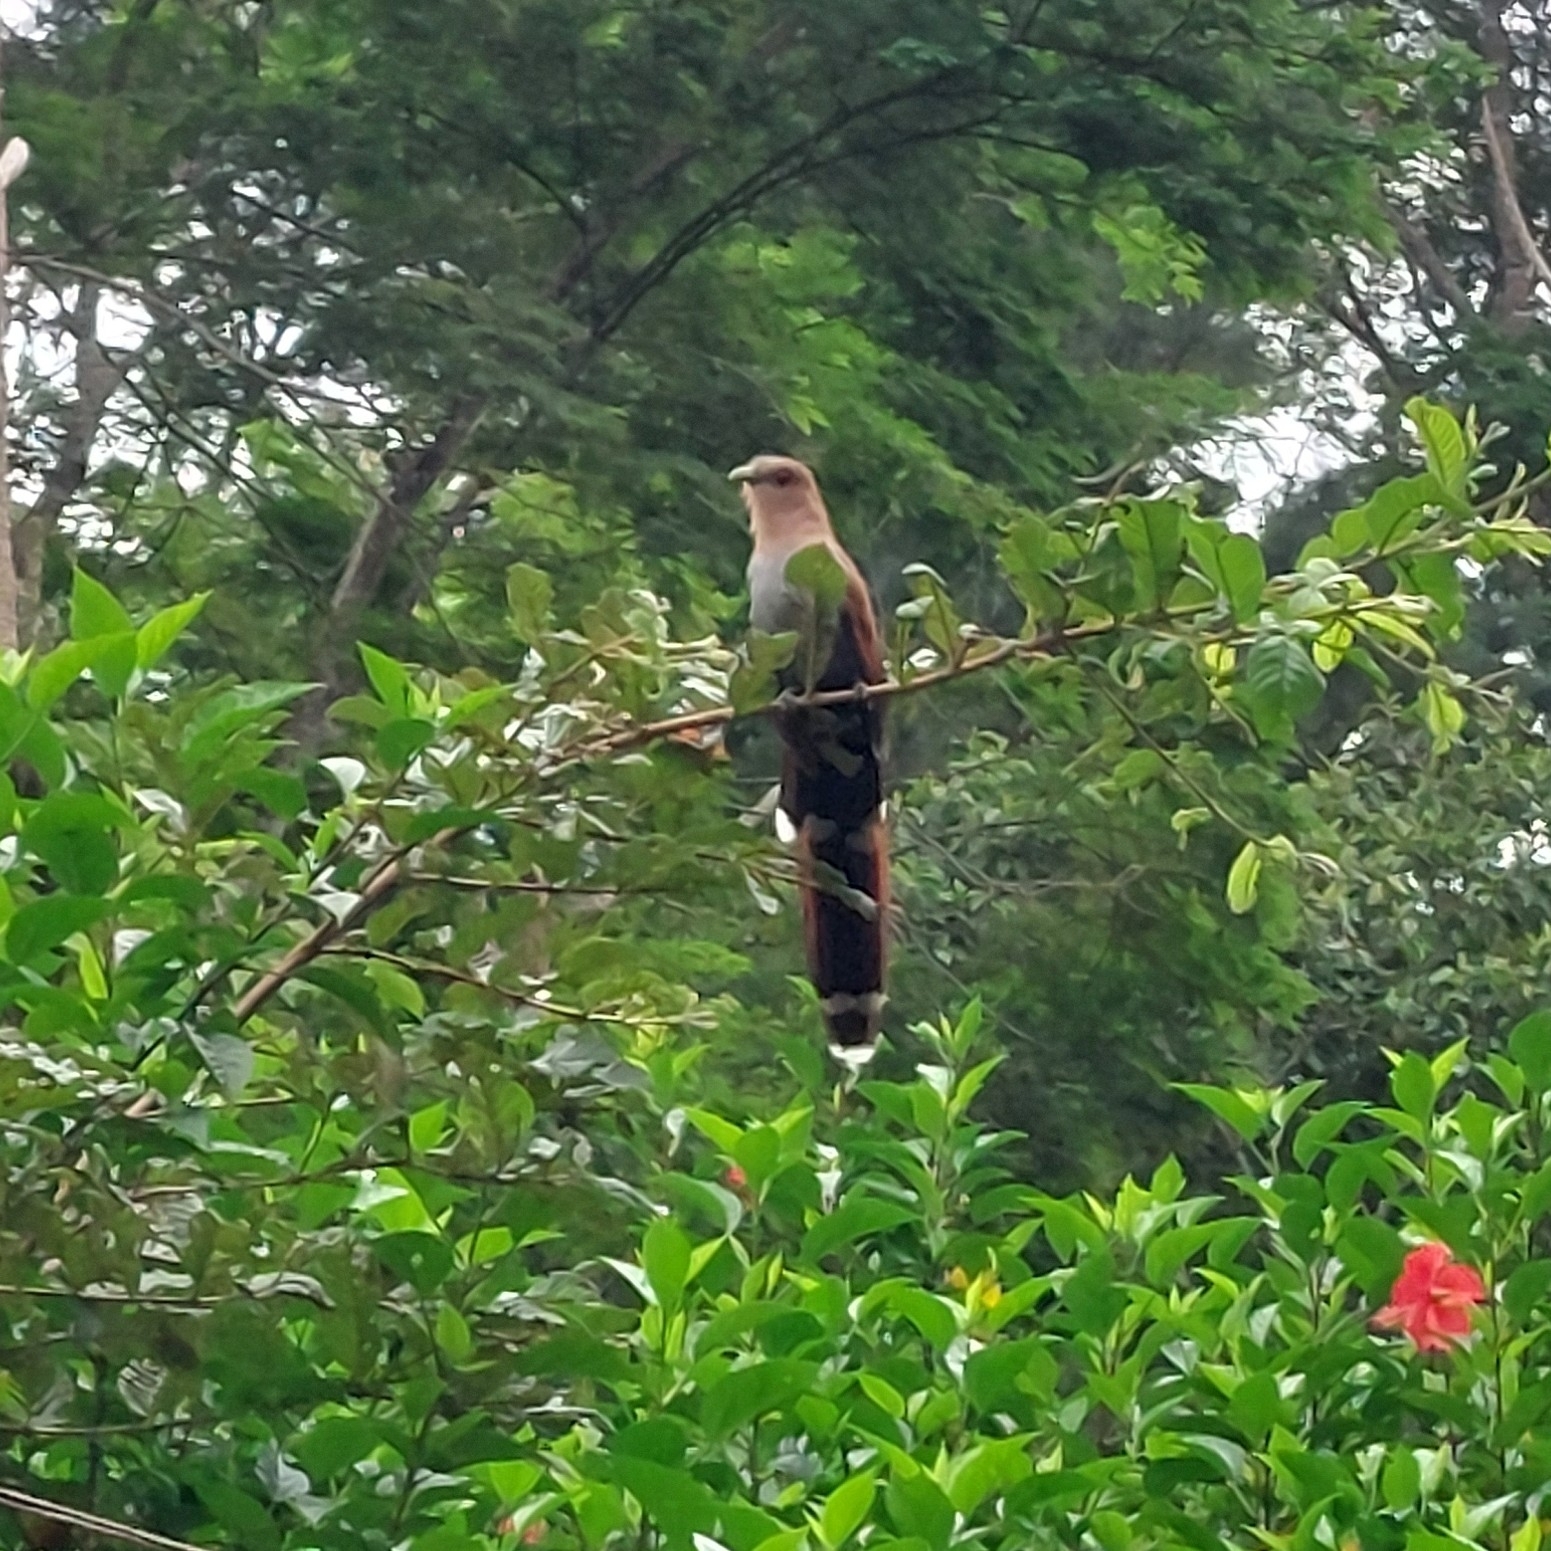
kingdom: Animalia
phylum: Chordata
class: Aves
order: Cuculiformes
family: Cuculidae
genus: Piaya
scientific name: Piaya cayana
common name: Squirrel cuckoo
